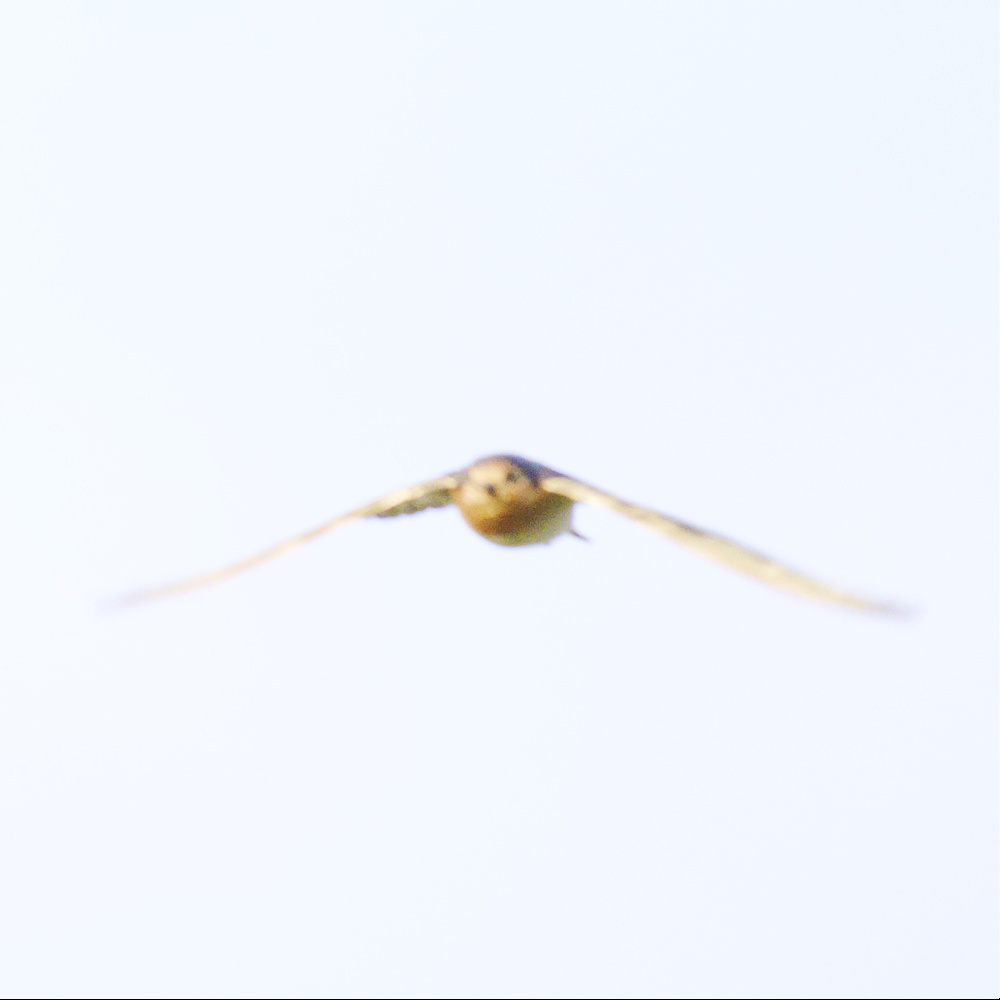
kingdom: Animalia
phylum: Chordata
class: Aves
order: Passeriformes
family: Hirundinidae
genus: Hirundo
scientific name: Hirundo neoxena
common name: Welcome swallow
